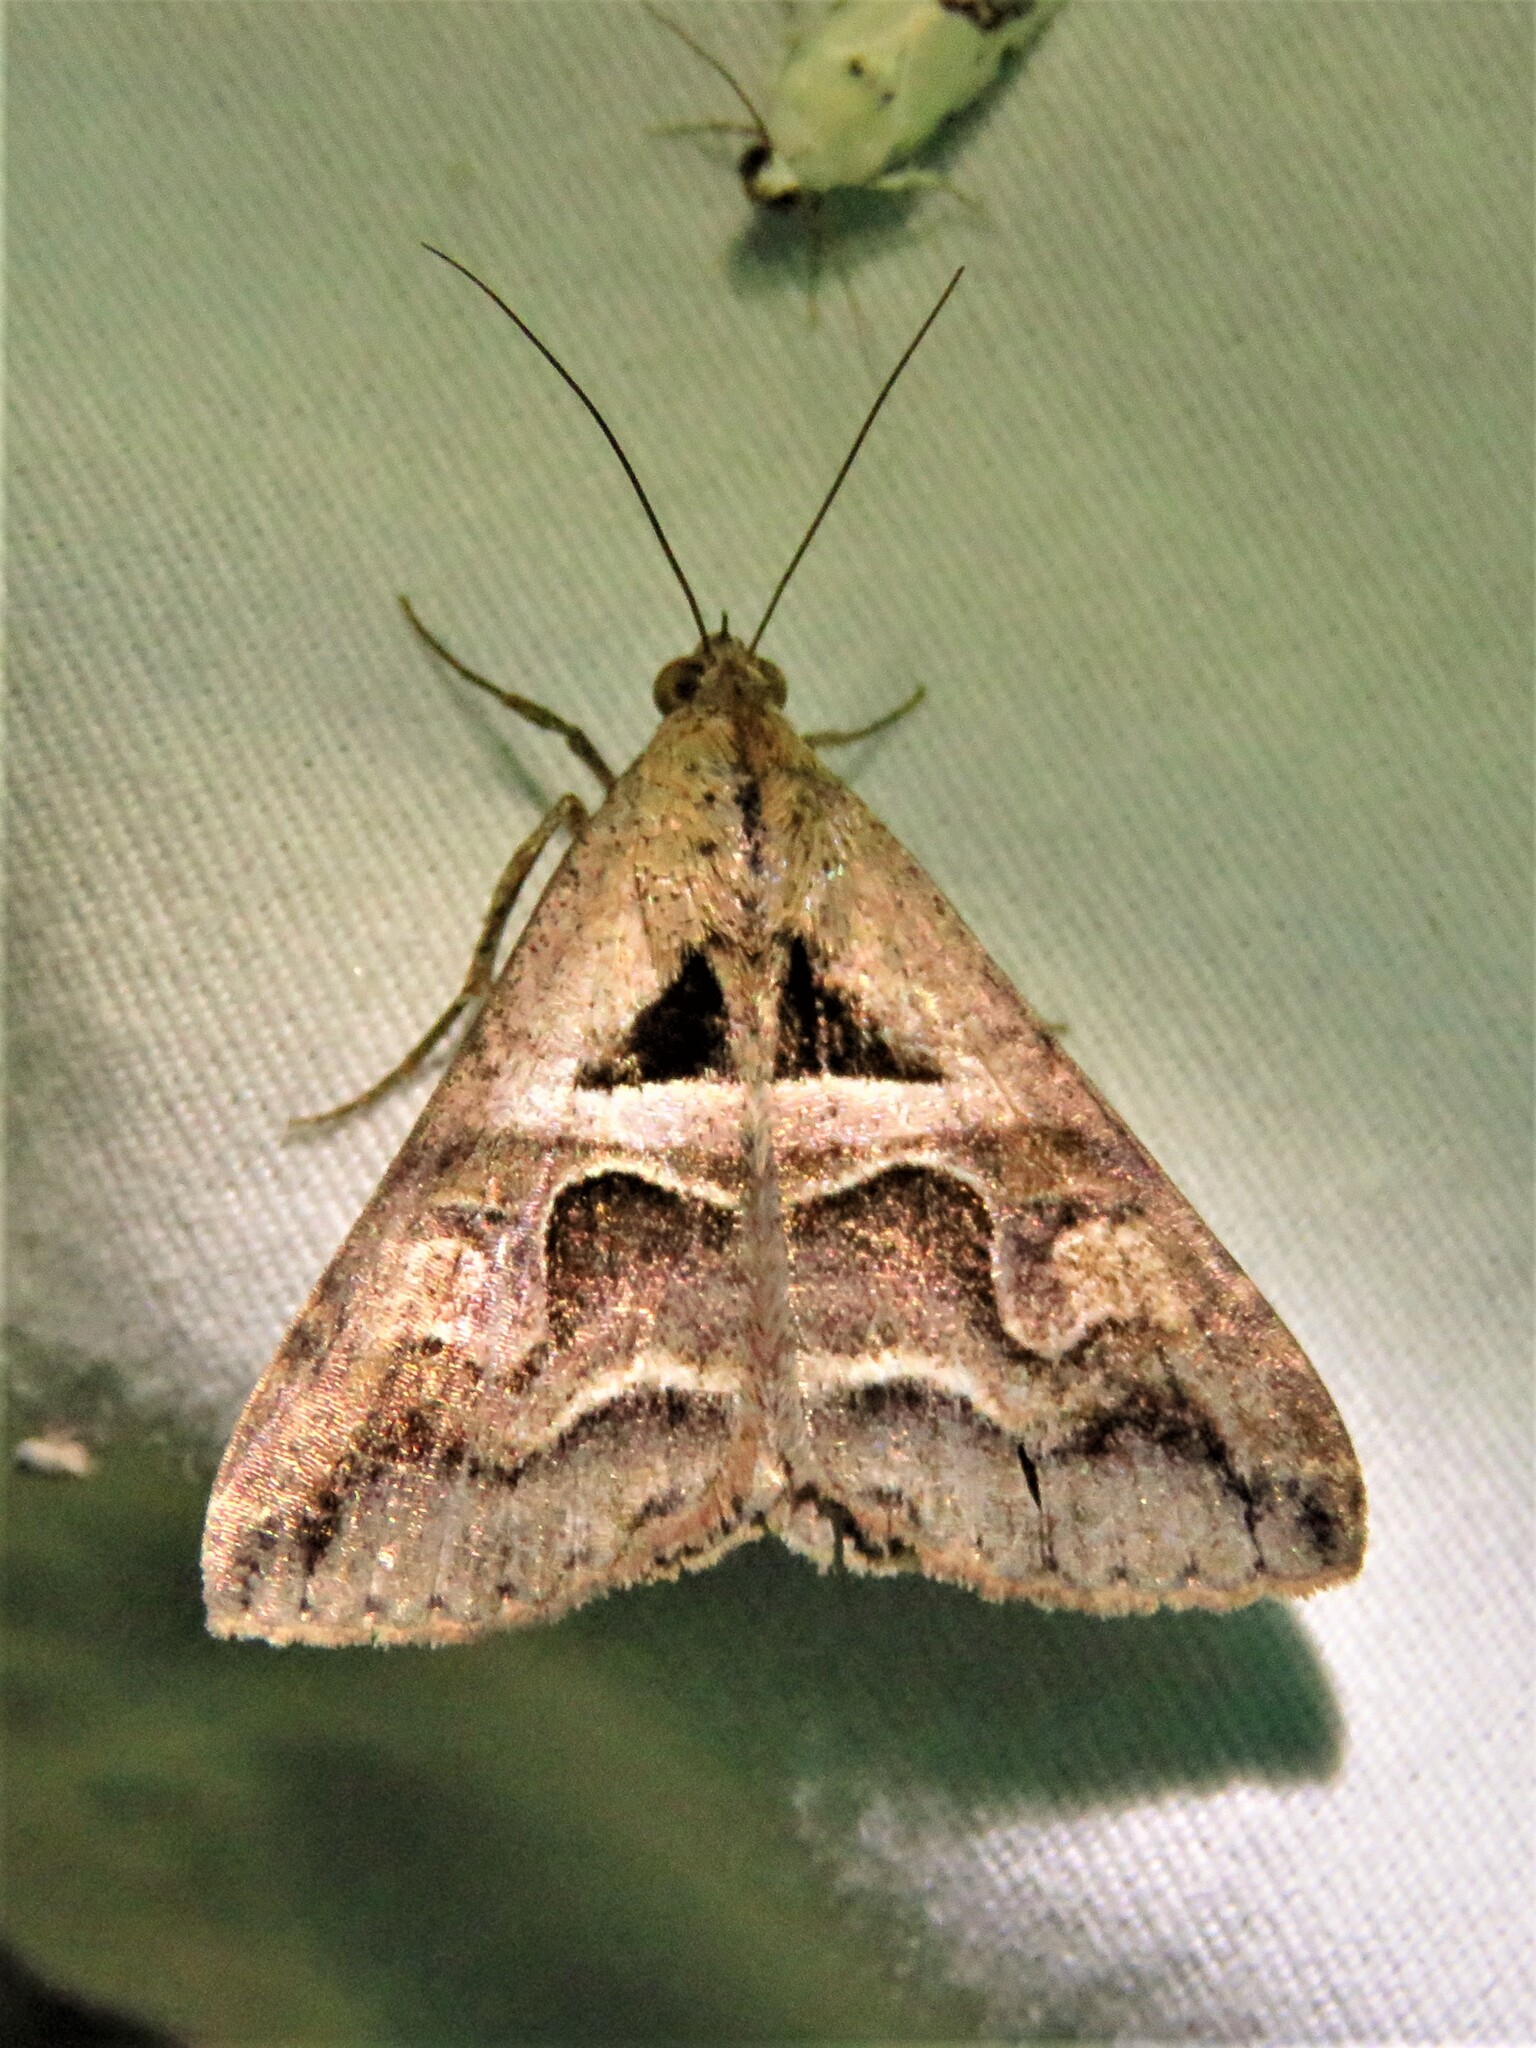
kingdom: Animalia
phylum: Arthropoda
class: Insecta
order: Lepidoptera
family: Erebidae
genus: Melipotis
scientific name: Melipotis cellaris
